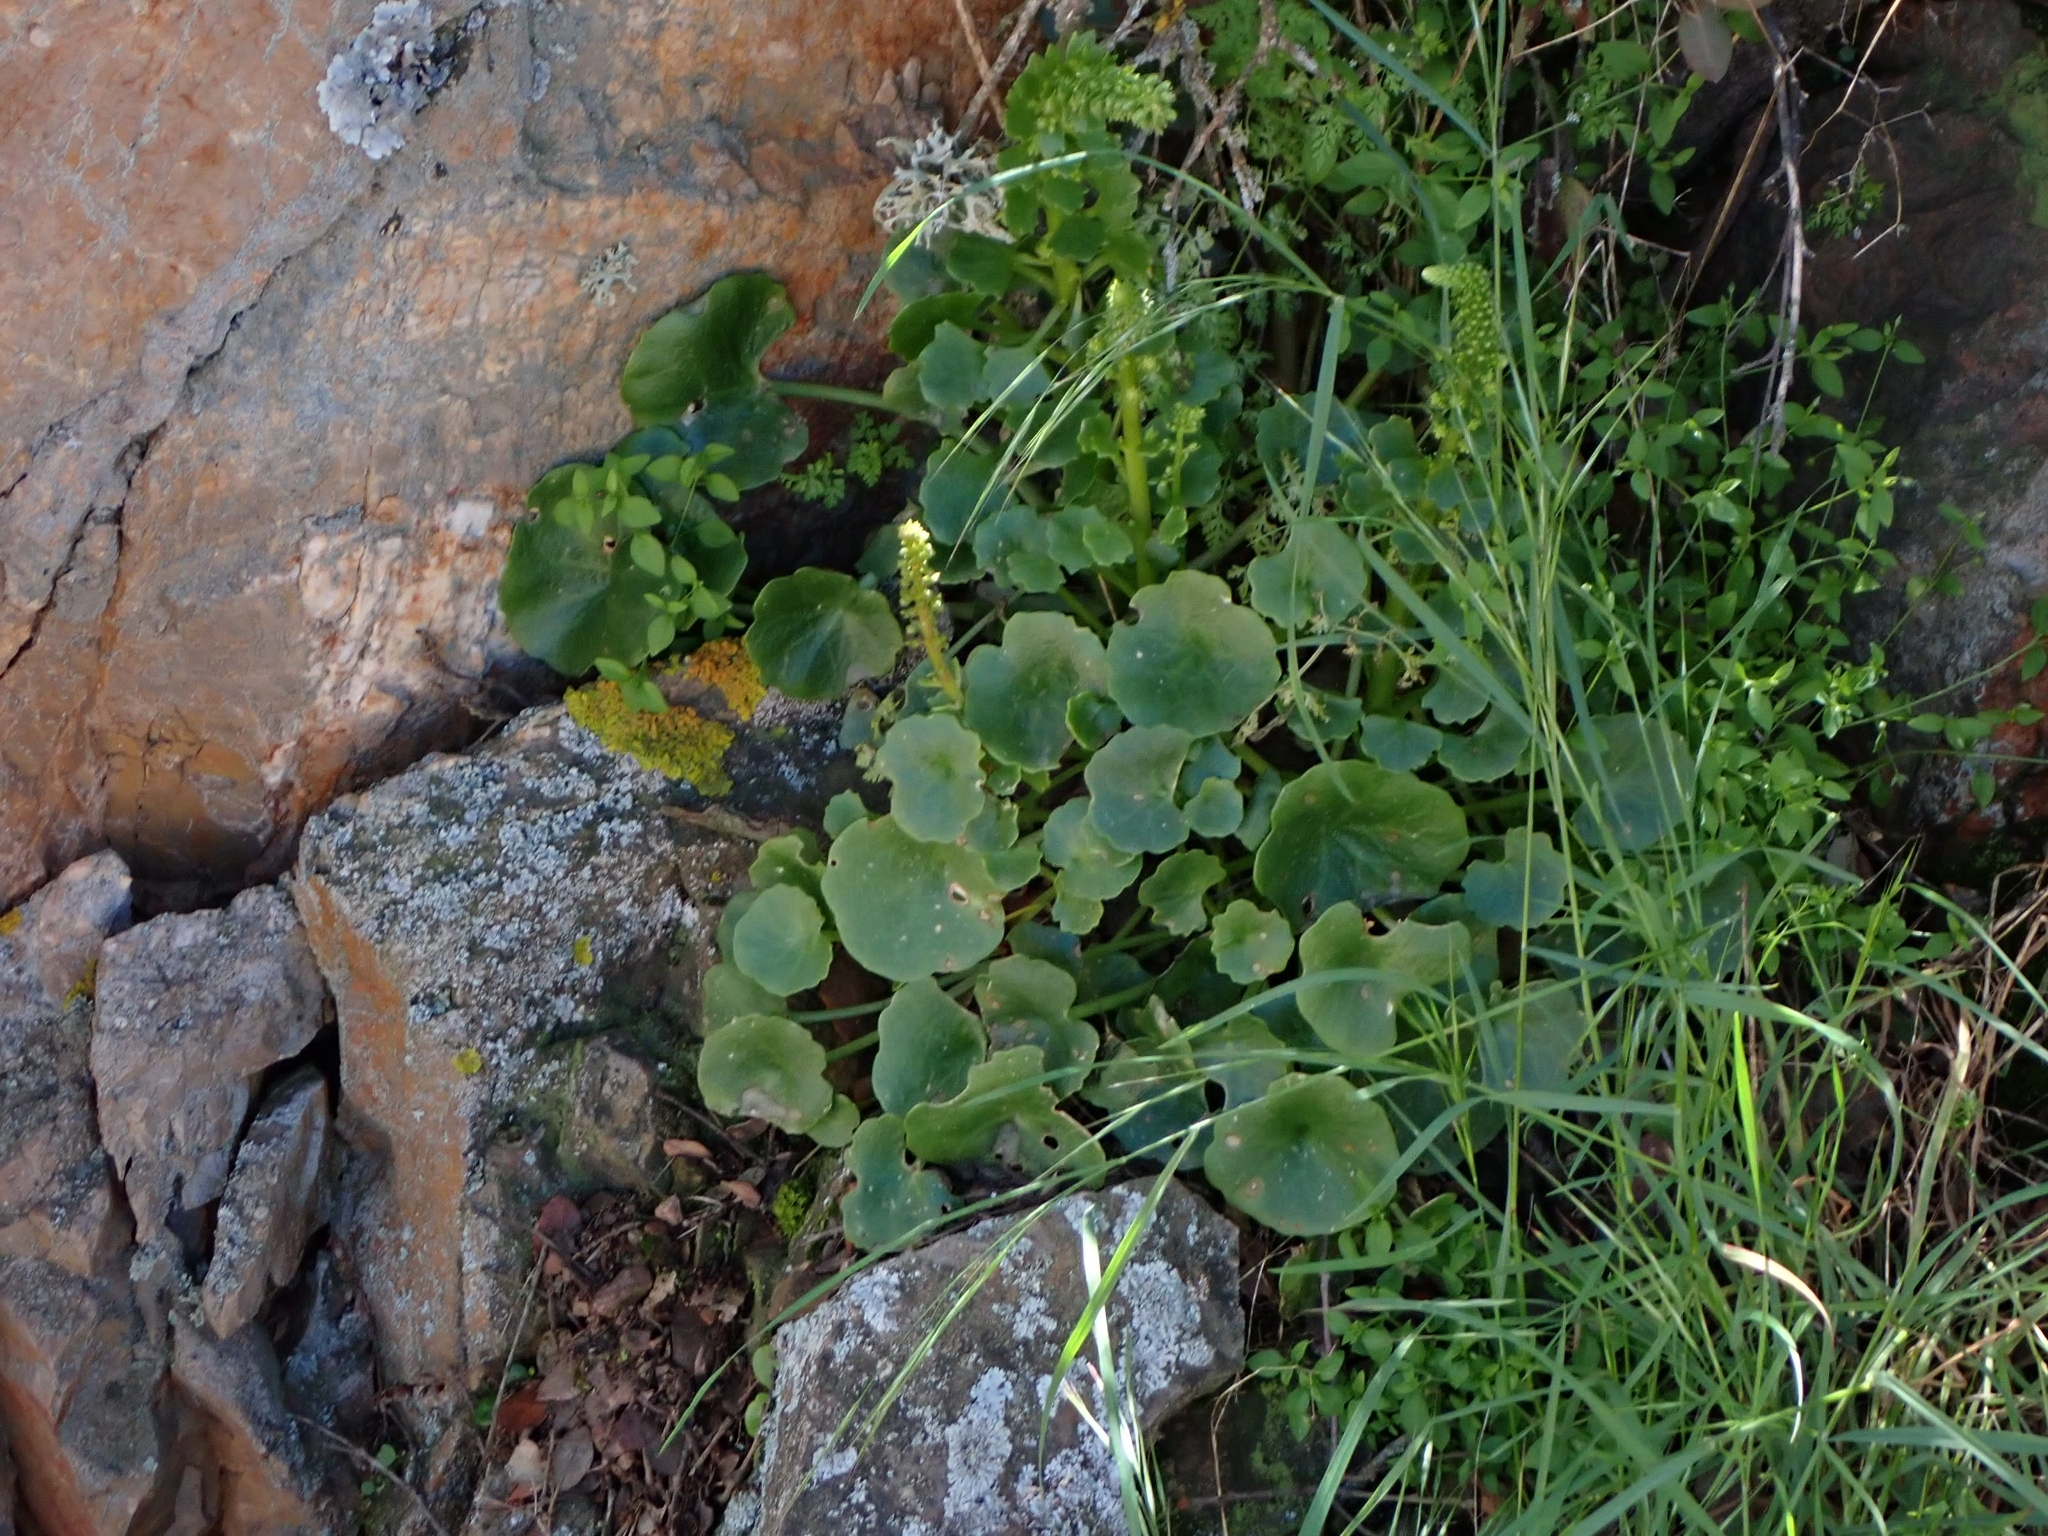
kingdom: Plantae
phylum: Tracheophyta
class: Magnoliopsida
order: Saxifragales
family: Crassulaceae
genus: Umbilicus
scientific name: Umbilicus rupestris
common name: Navelwort
